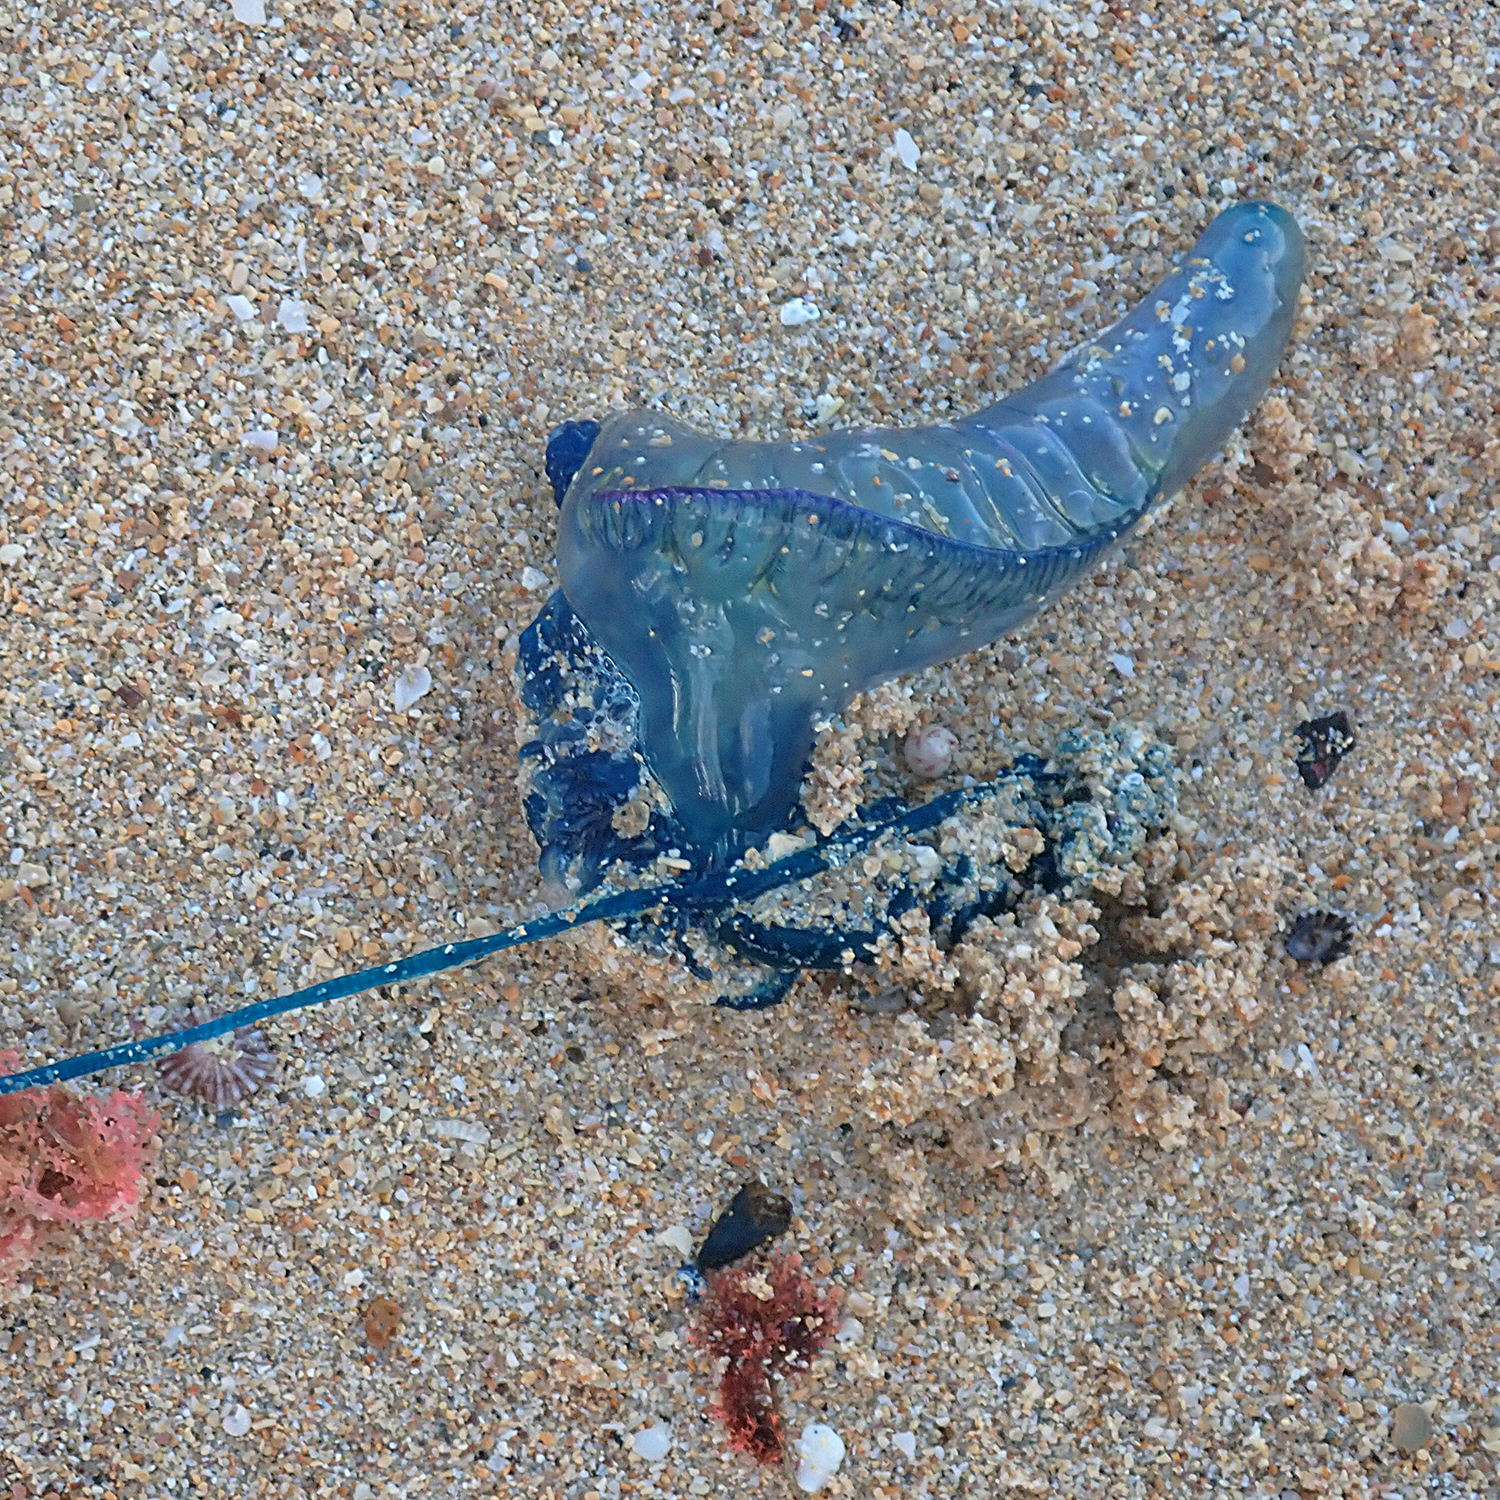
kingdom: Animalia
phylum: Cnidaria
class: Hydrozoa
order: Siphonophorae
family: Physaliidae
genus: Physalia
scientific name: Physalia physalis
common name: Portuguese man-of-war
